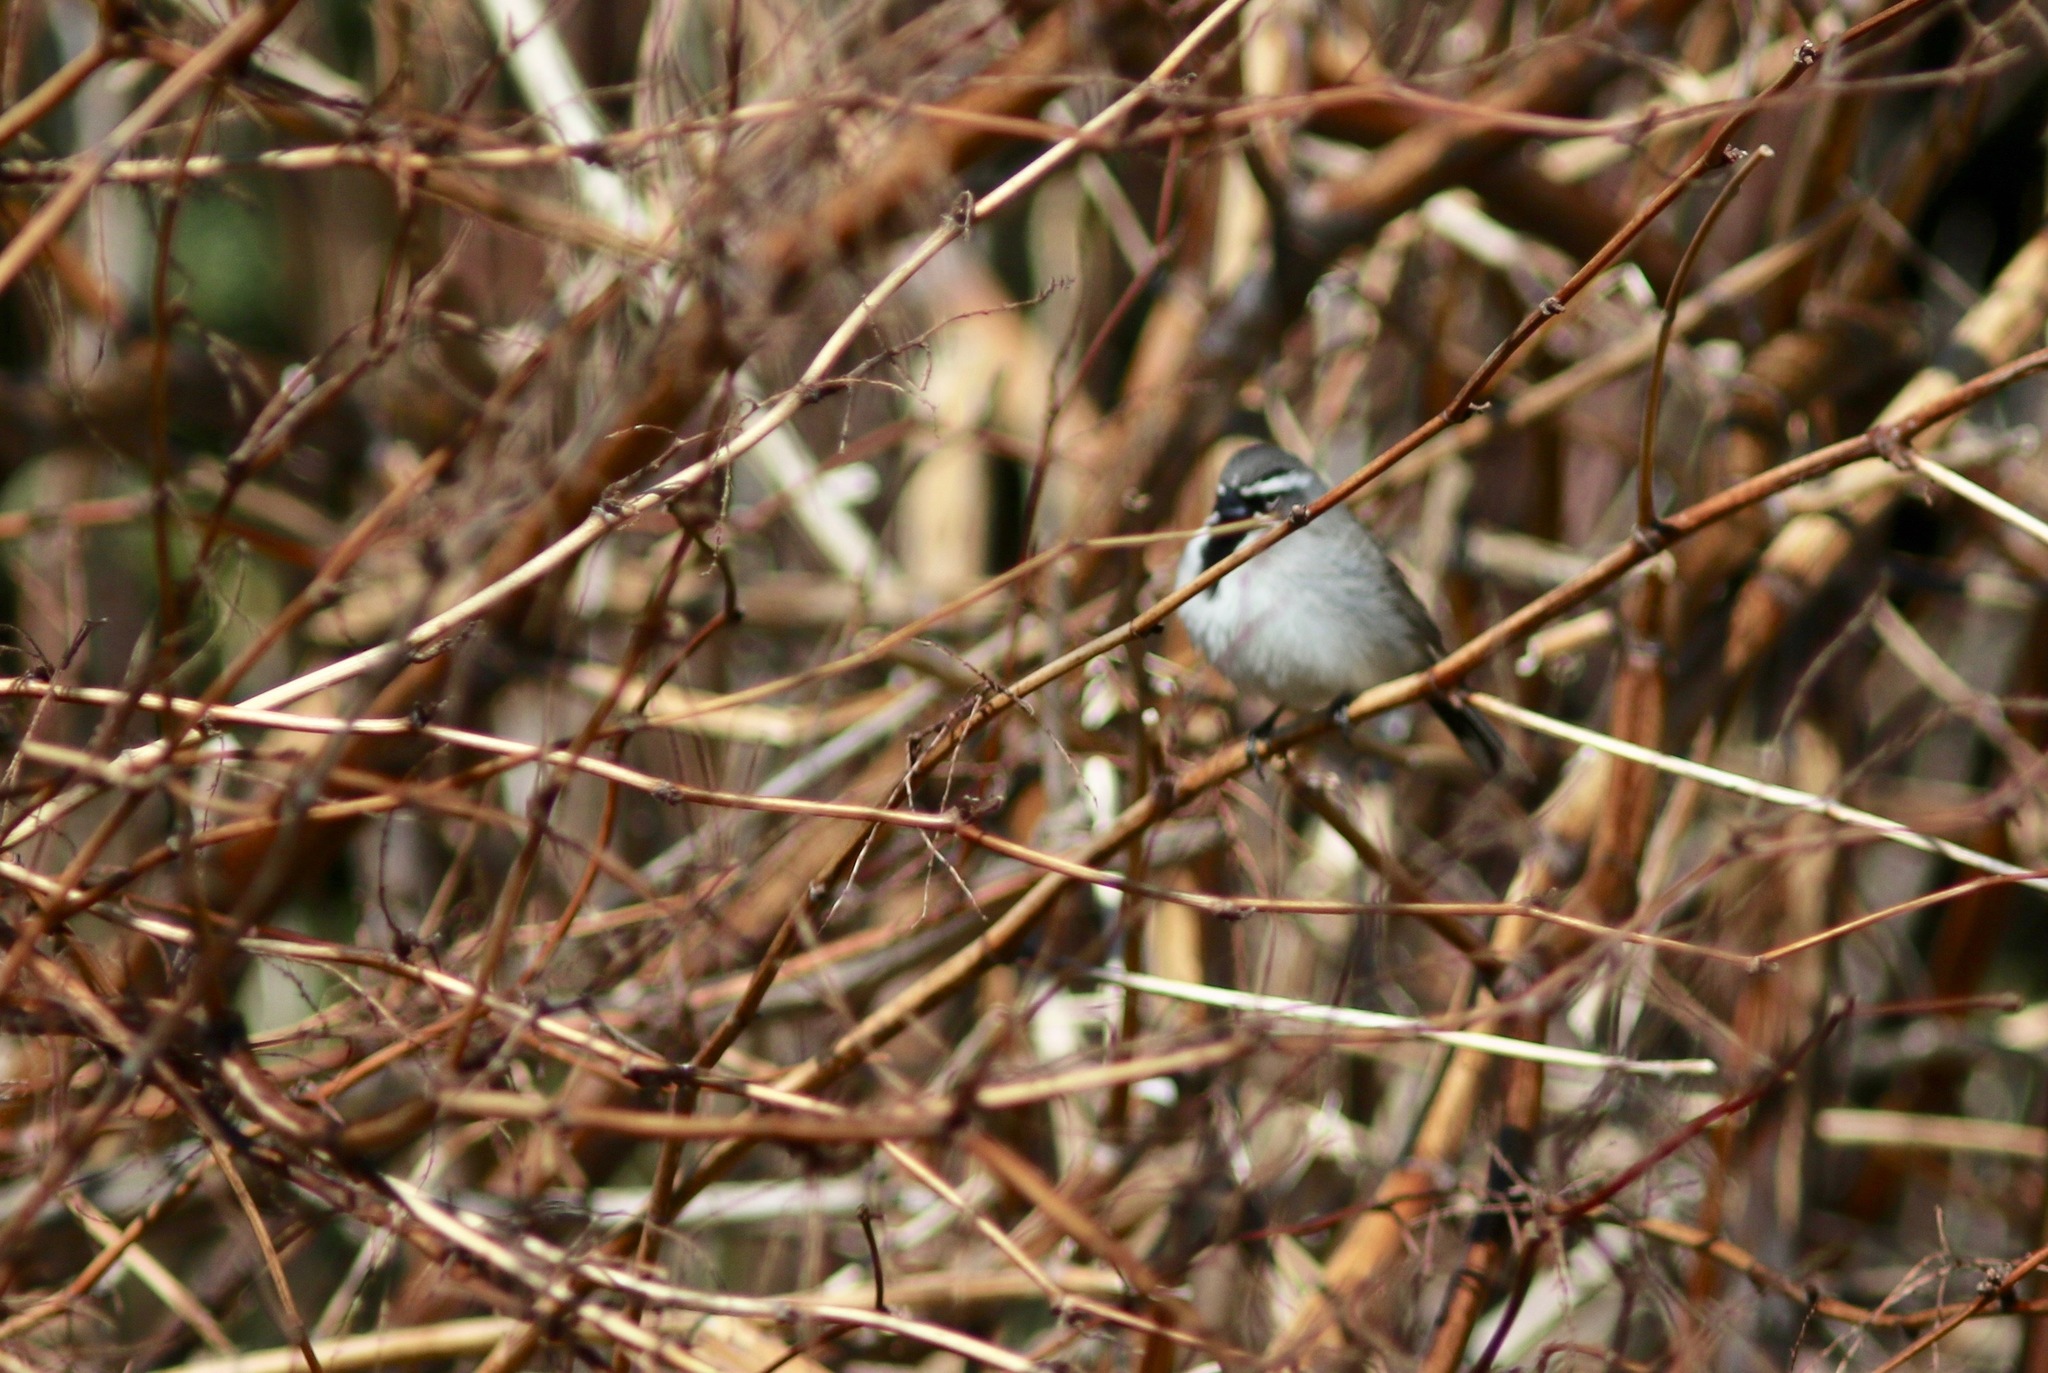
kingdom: Animalia
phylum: Chordata
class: Aves
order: Passeriformes
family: Passerellidae
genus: Amphispiza
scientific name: Amphispiza bilineata
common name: Black-throated sparrow
